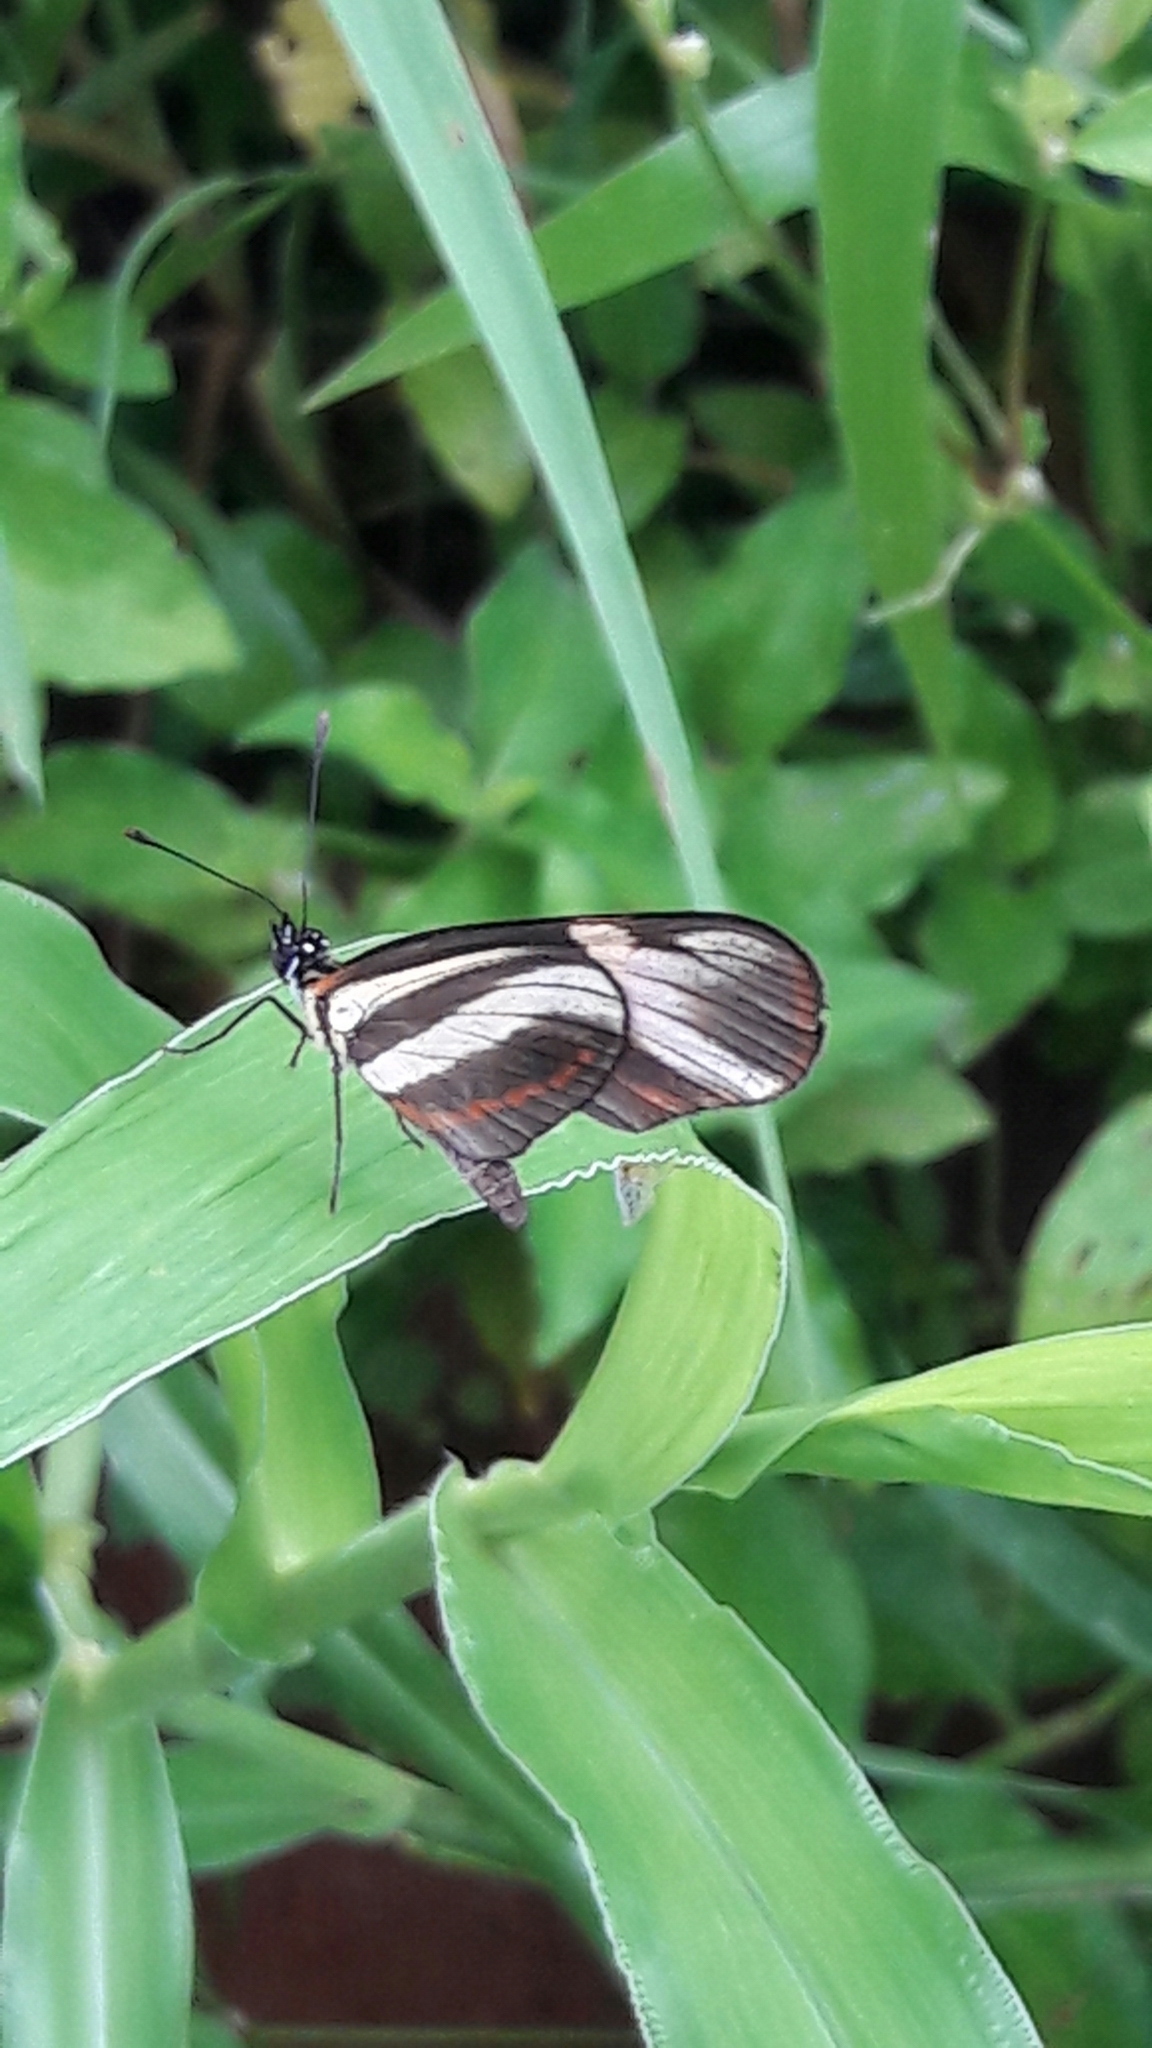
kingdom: Animalia
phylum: Arthropoda
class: Insecta
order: Lepidoptera
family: Nymphalidae
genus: Eresia
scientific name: Eresia lansdorfi
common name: Lansdorf's crescent
